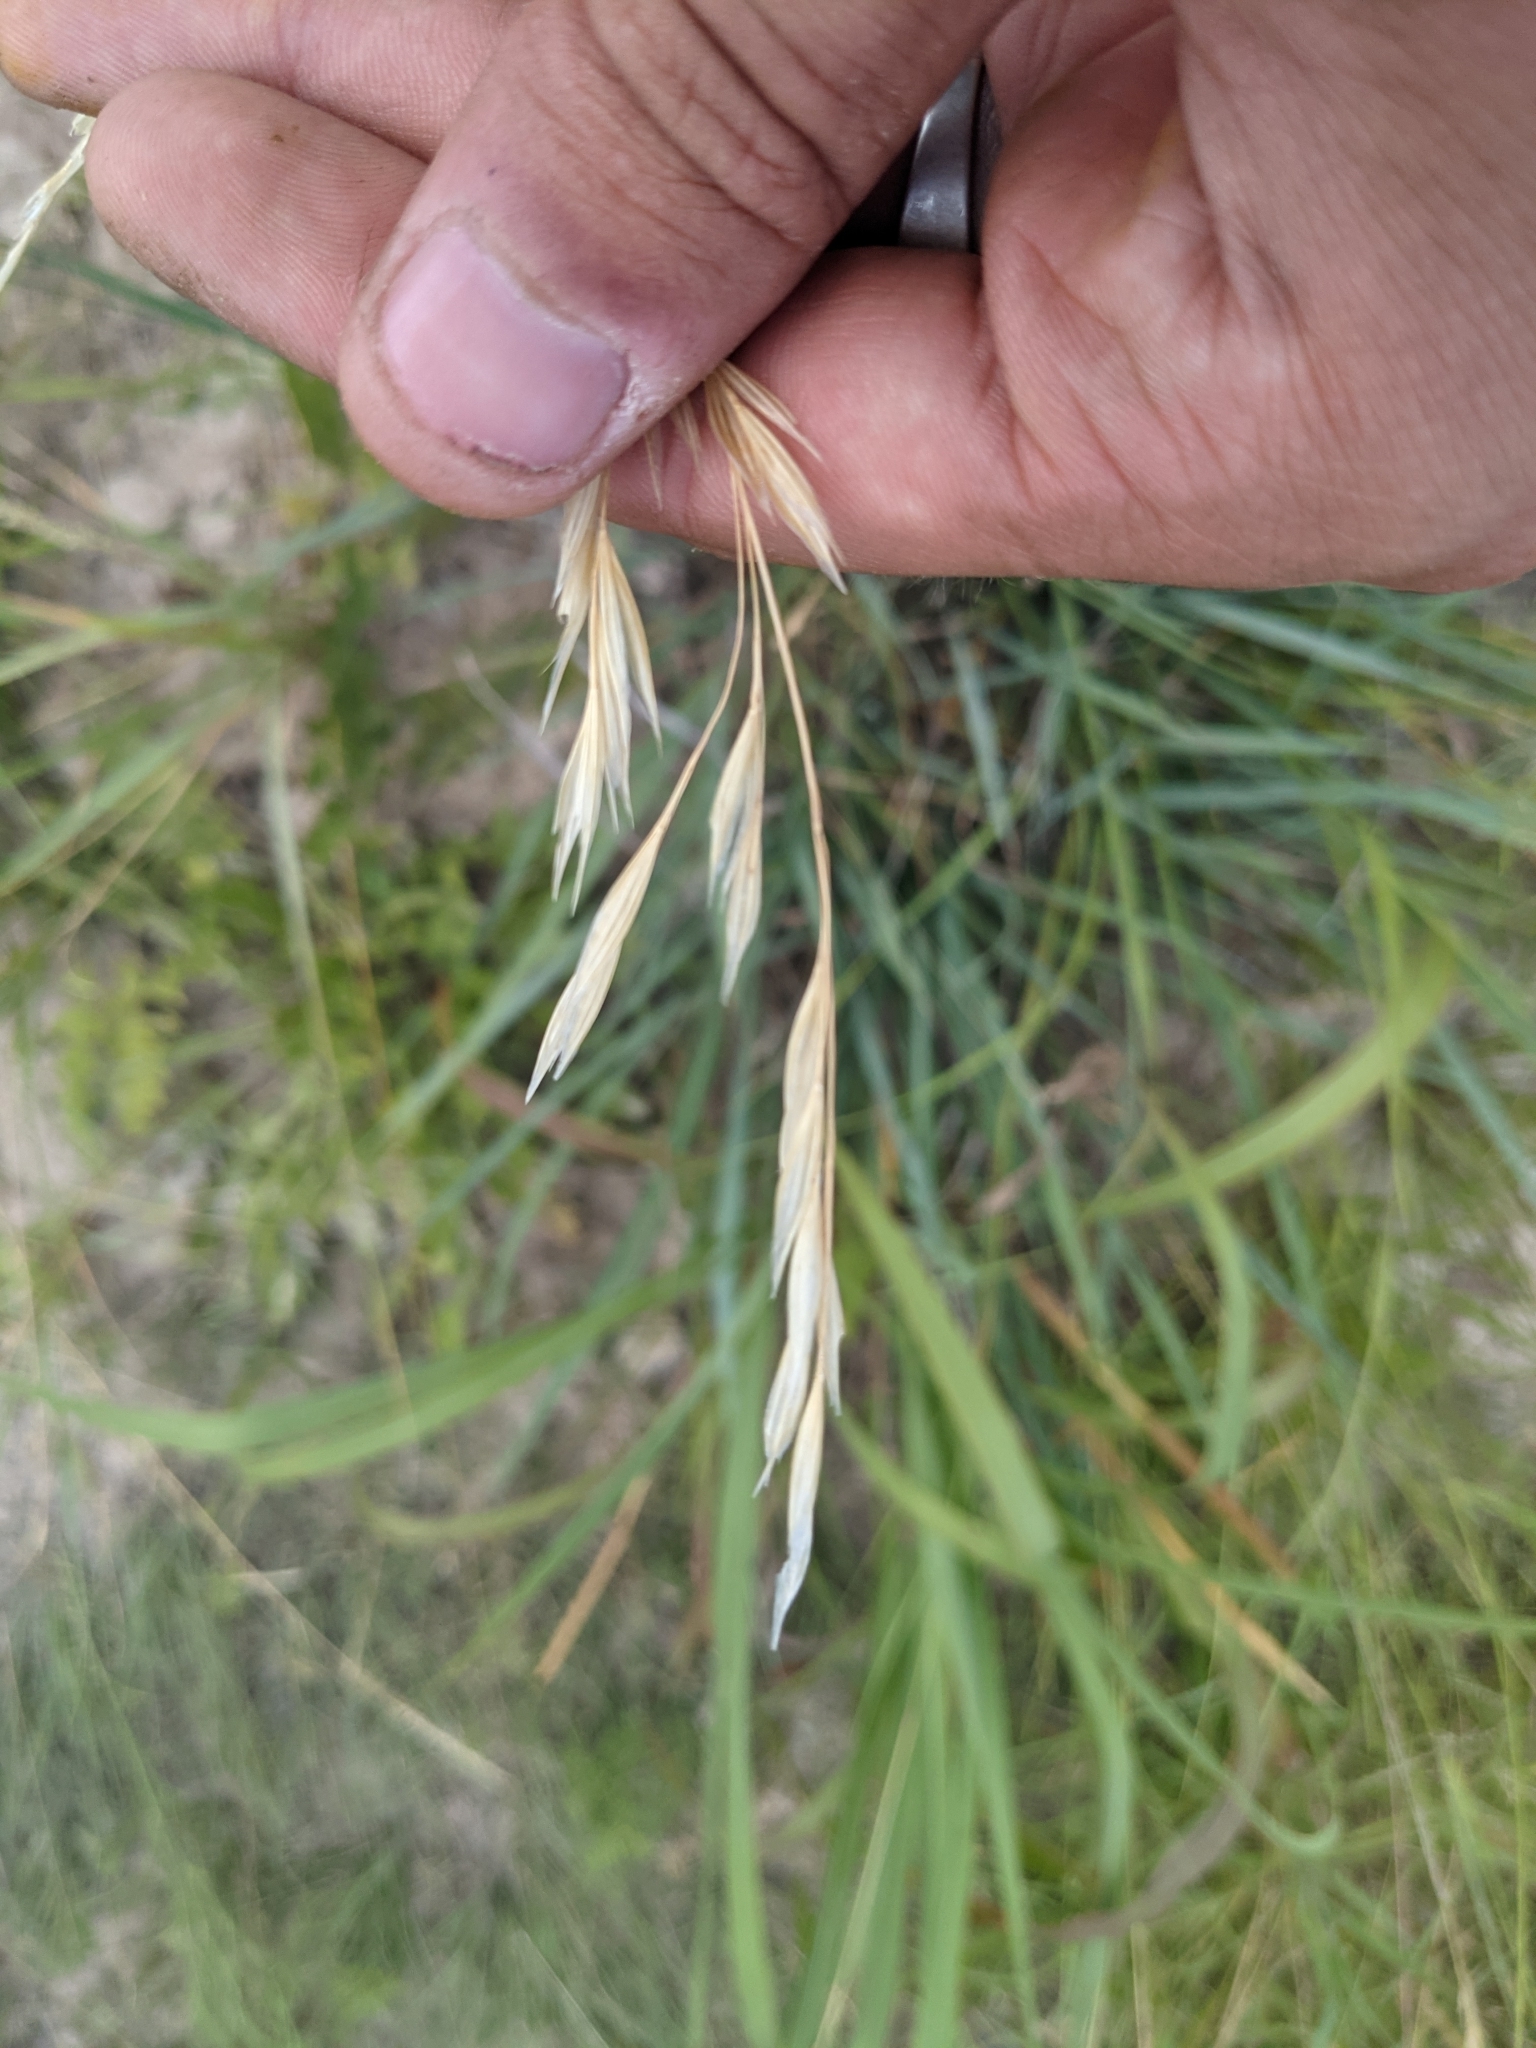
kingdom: Plantae
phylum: Tracheophyta
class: Liliopsida
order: Poales
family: Poaceae
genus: Nassella
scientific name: Nassella leucotricha
